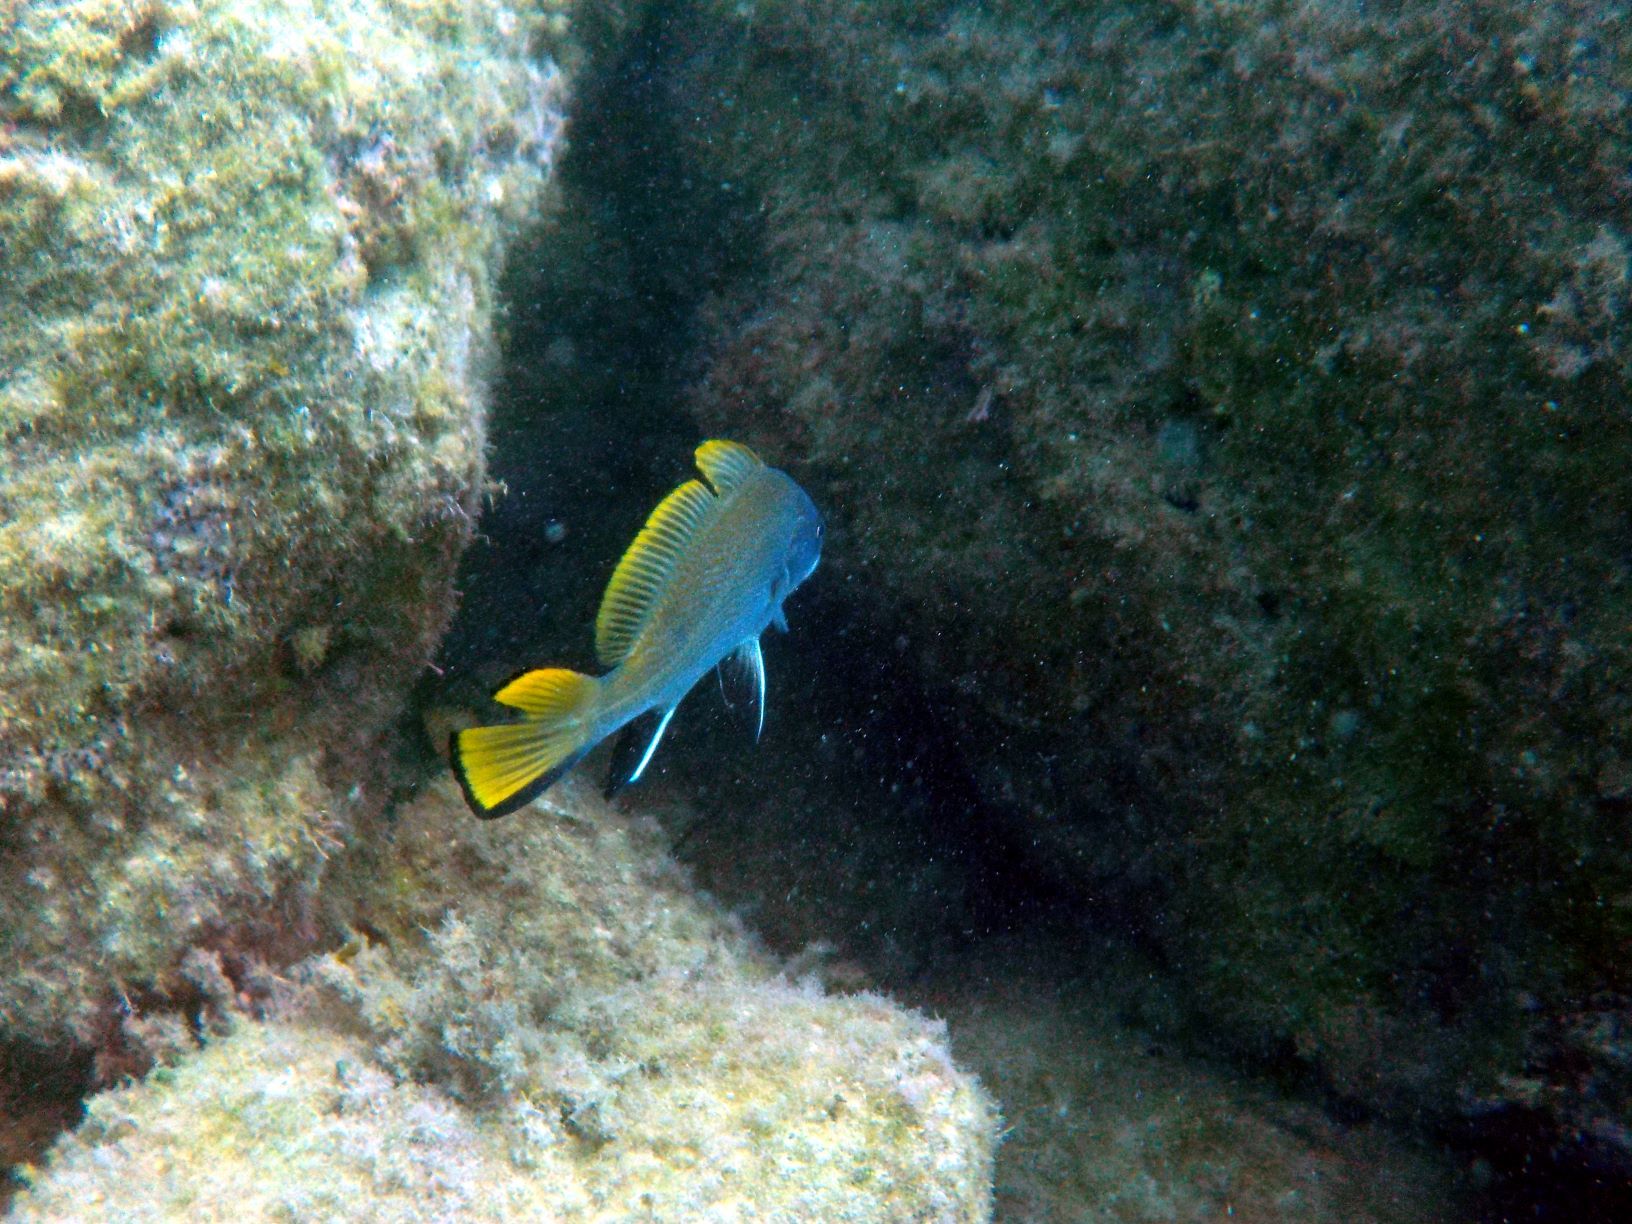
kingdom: Animalia
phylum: Chordata
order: Perciformes
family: Sciaenidae
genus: Sciaena
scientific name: Sciaena umbra
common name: Brown meagre
